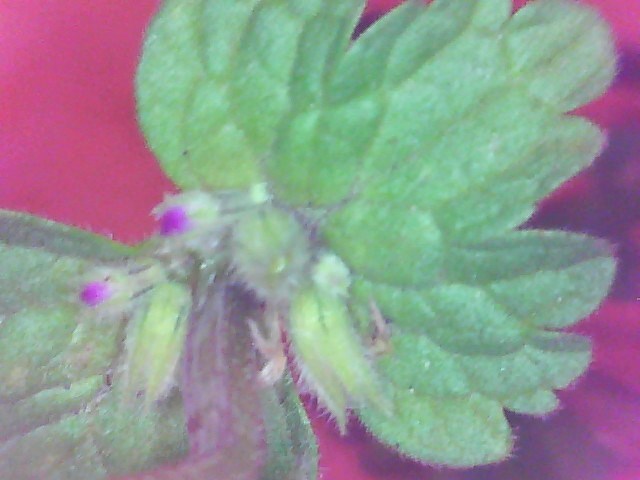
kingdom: Plantae
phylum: Tracheophyta
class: Magnoliopsida
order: Lamiales
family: Lamiaceae
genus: Lamium
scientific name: Lamium amplexicaule
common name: Henbit dead-nettle
